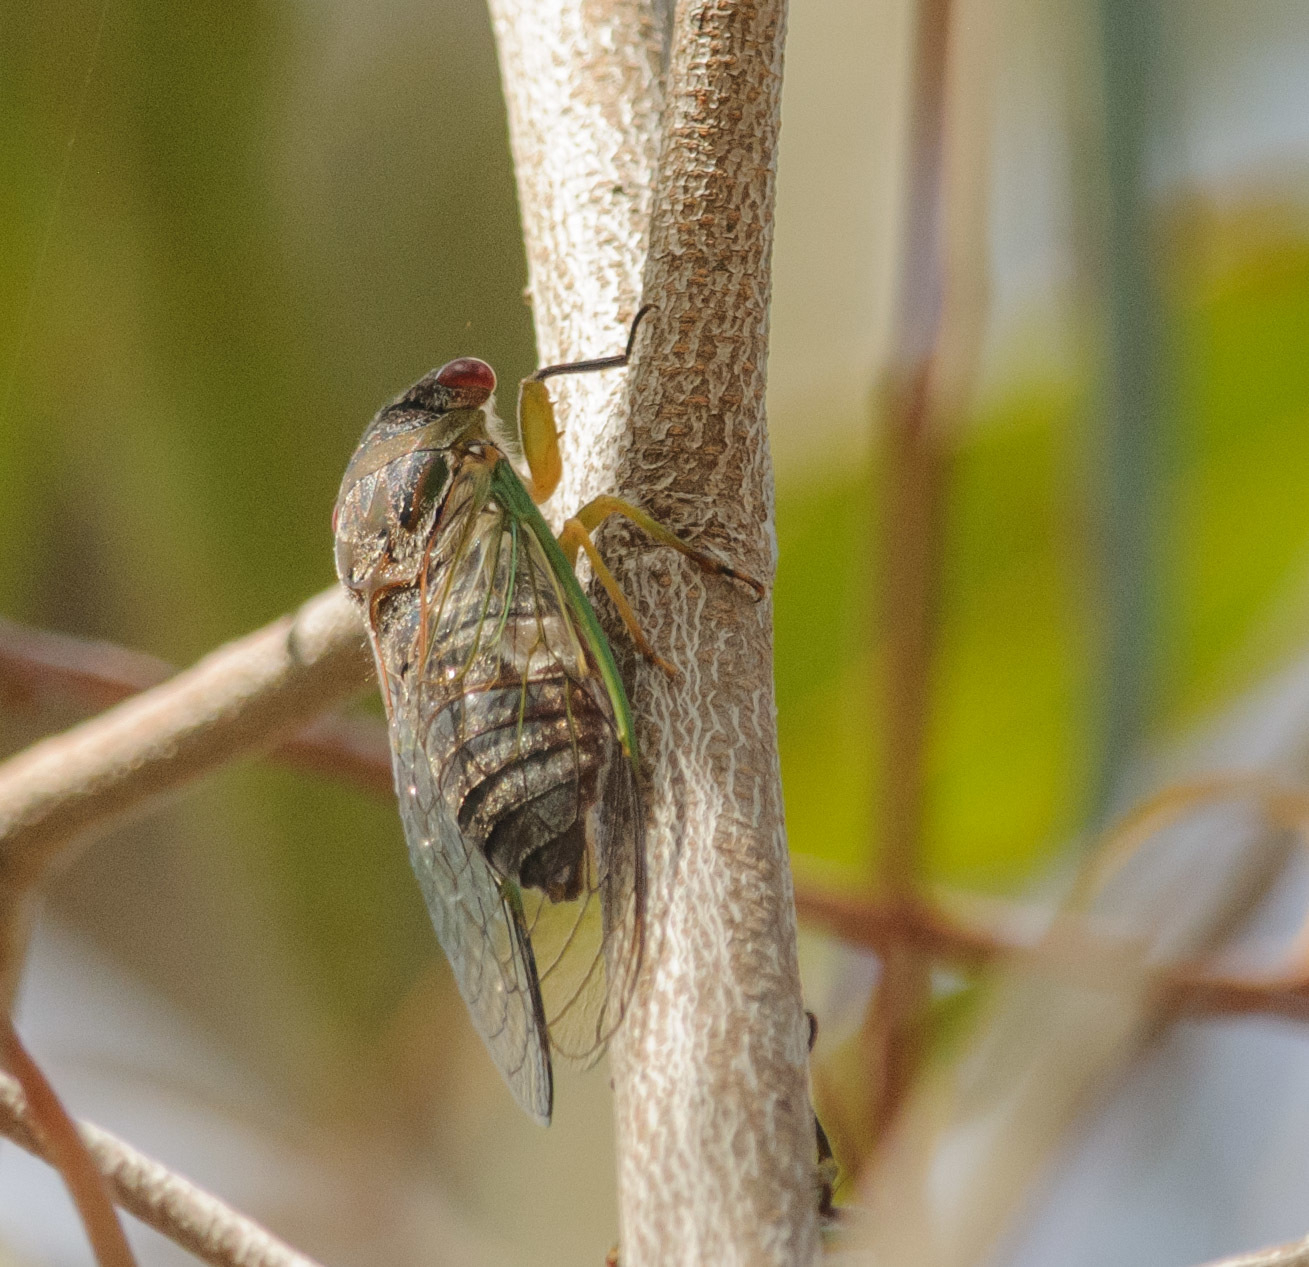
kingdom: Animalia
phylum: Arthropoda
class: Insecta
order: Hemiptera
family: Cicadidae
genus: Psaltoda
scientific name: Psaltoda claripennis
